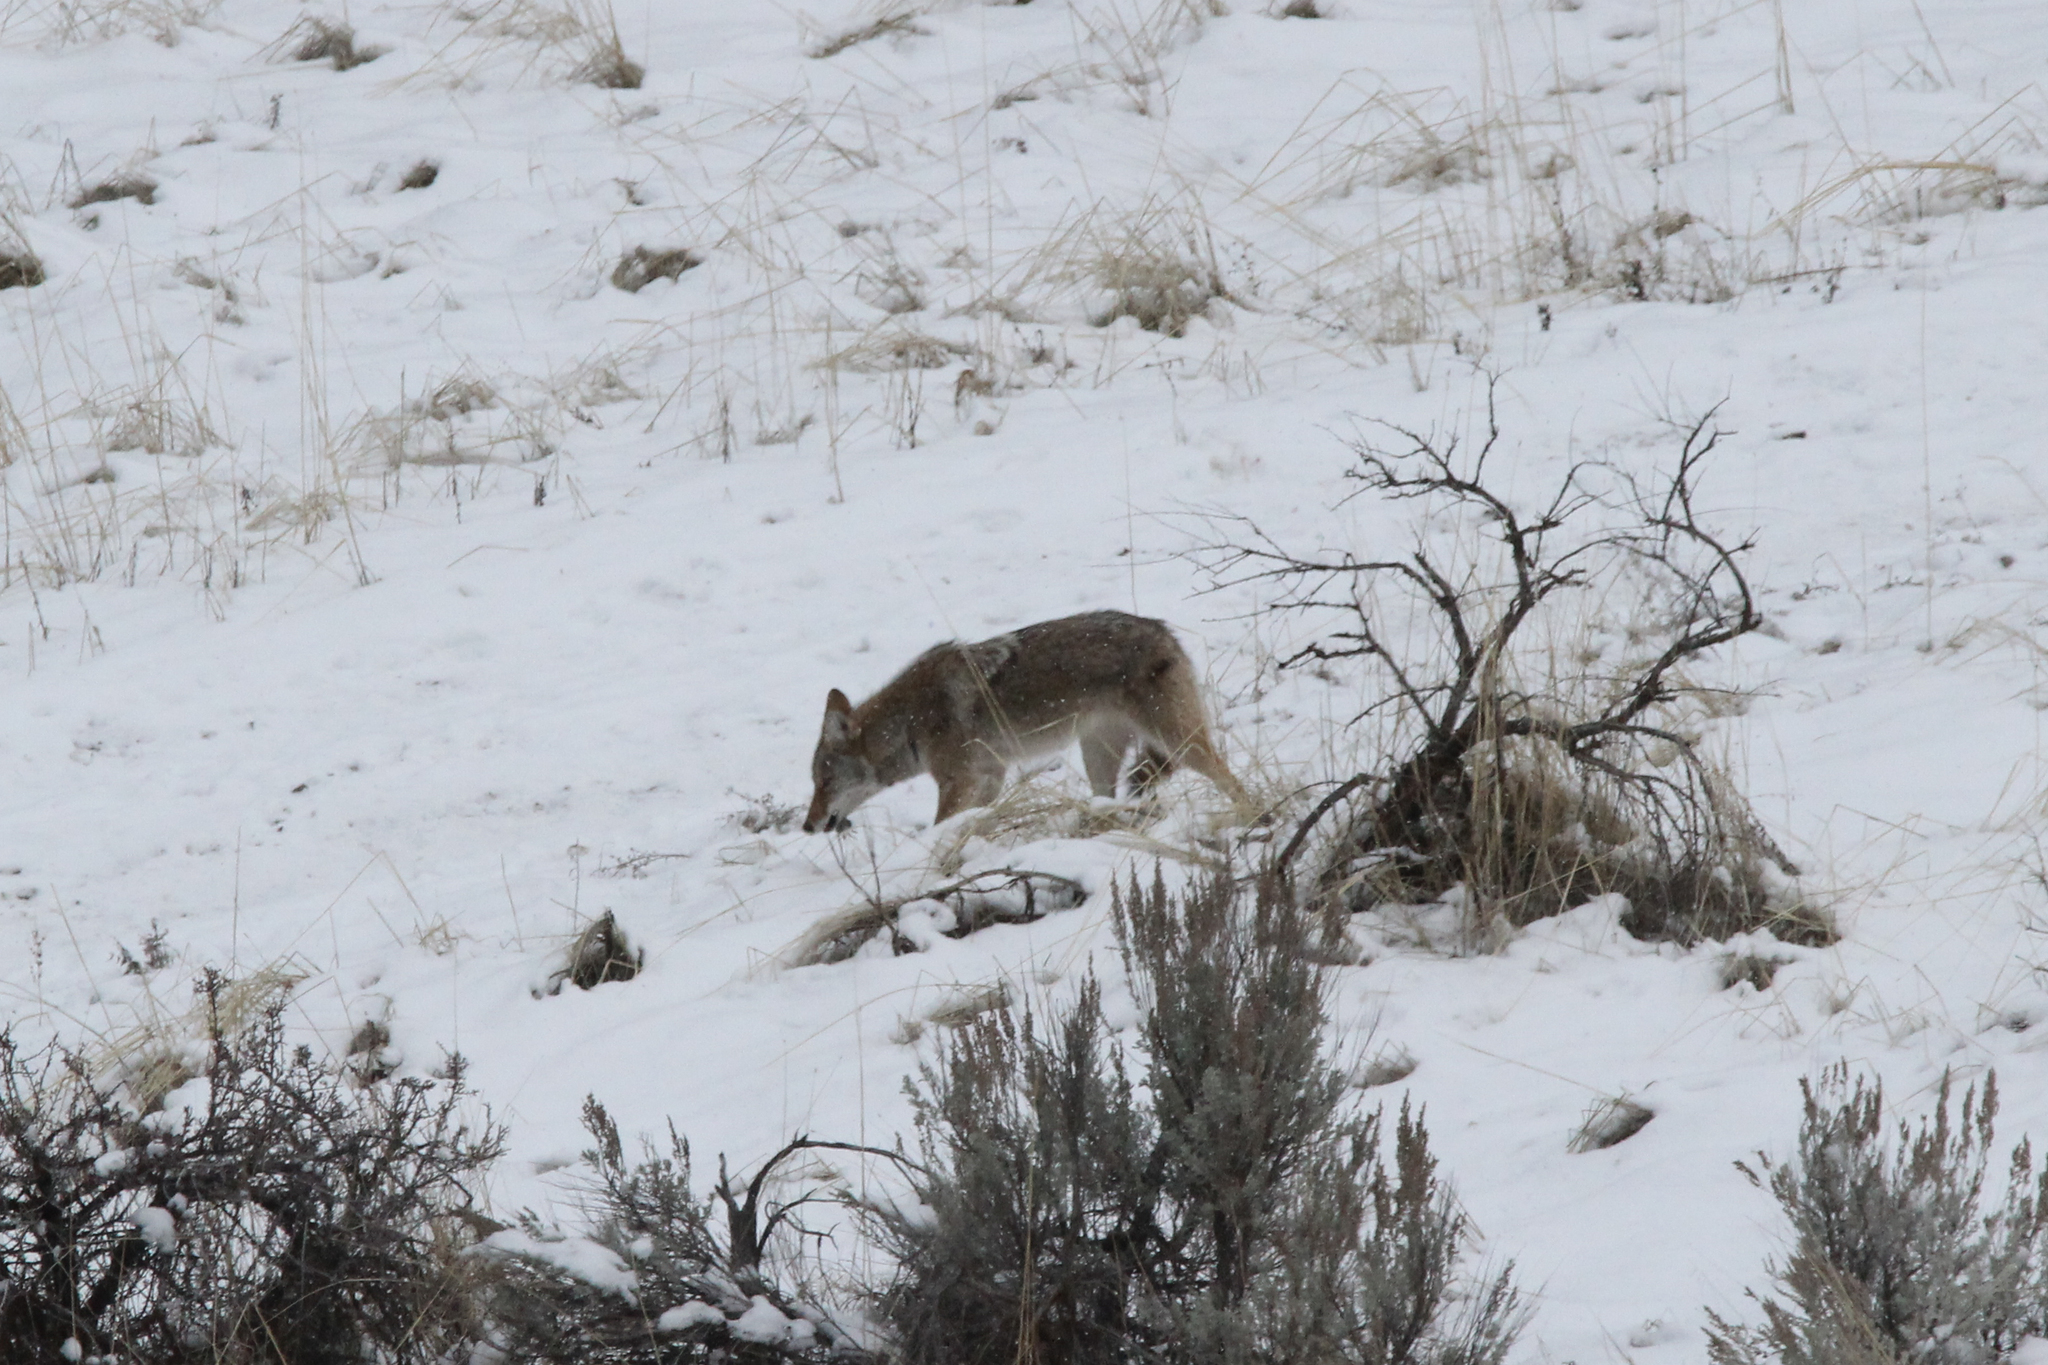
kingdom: Animalia
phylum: Chordata
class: Mammalia
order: Carnivora
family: Canidae
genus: Canis
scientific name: Canis latrans
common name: Coyote
